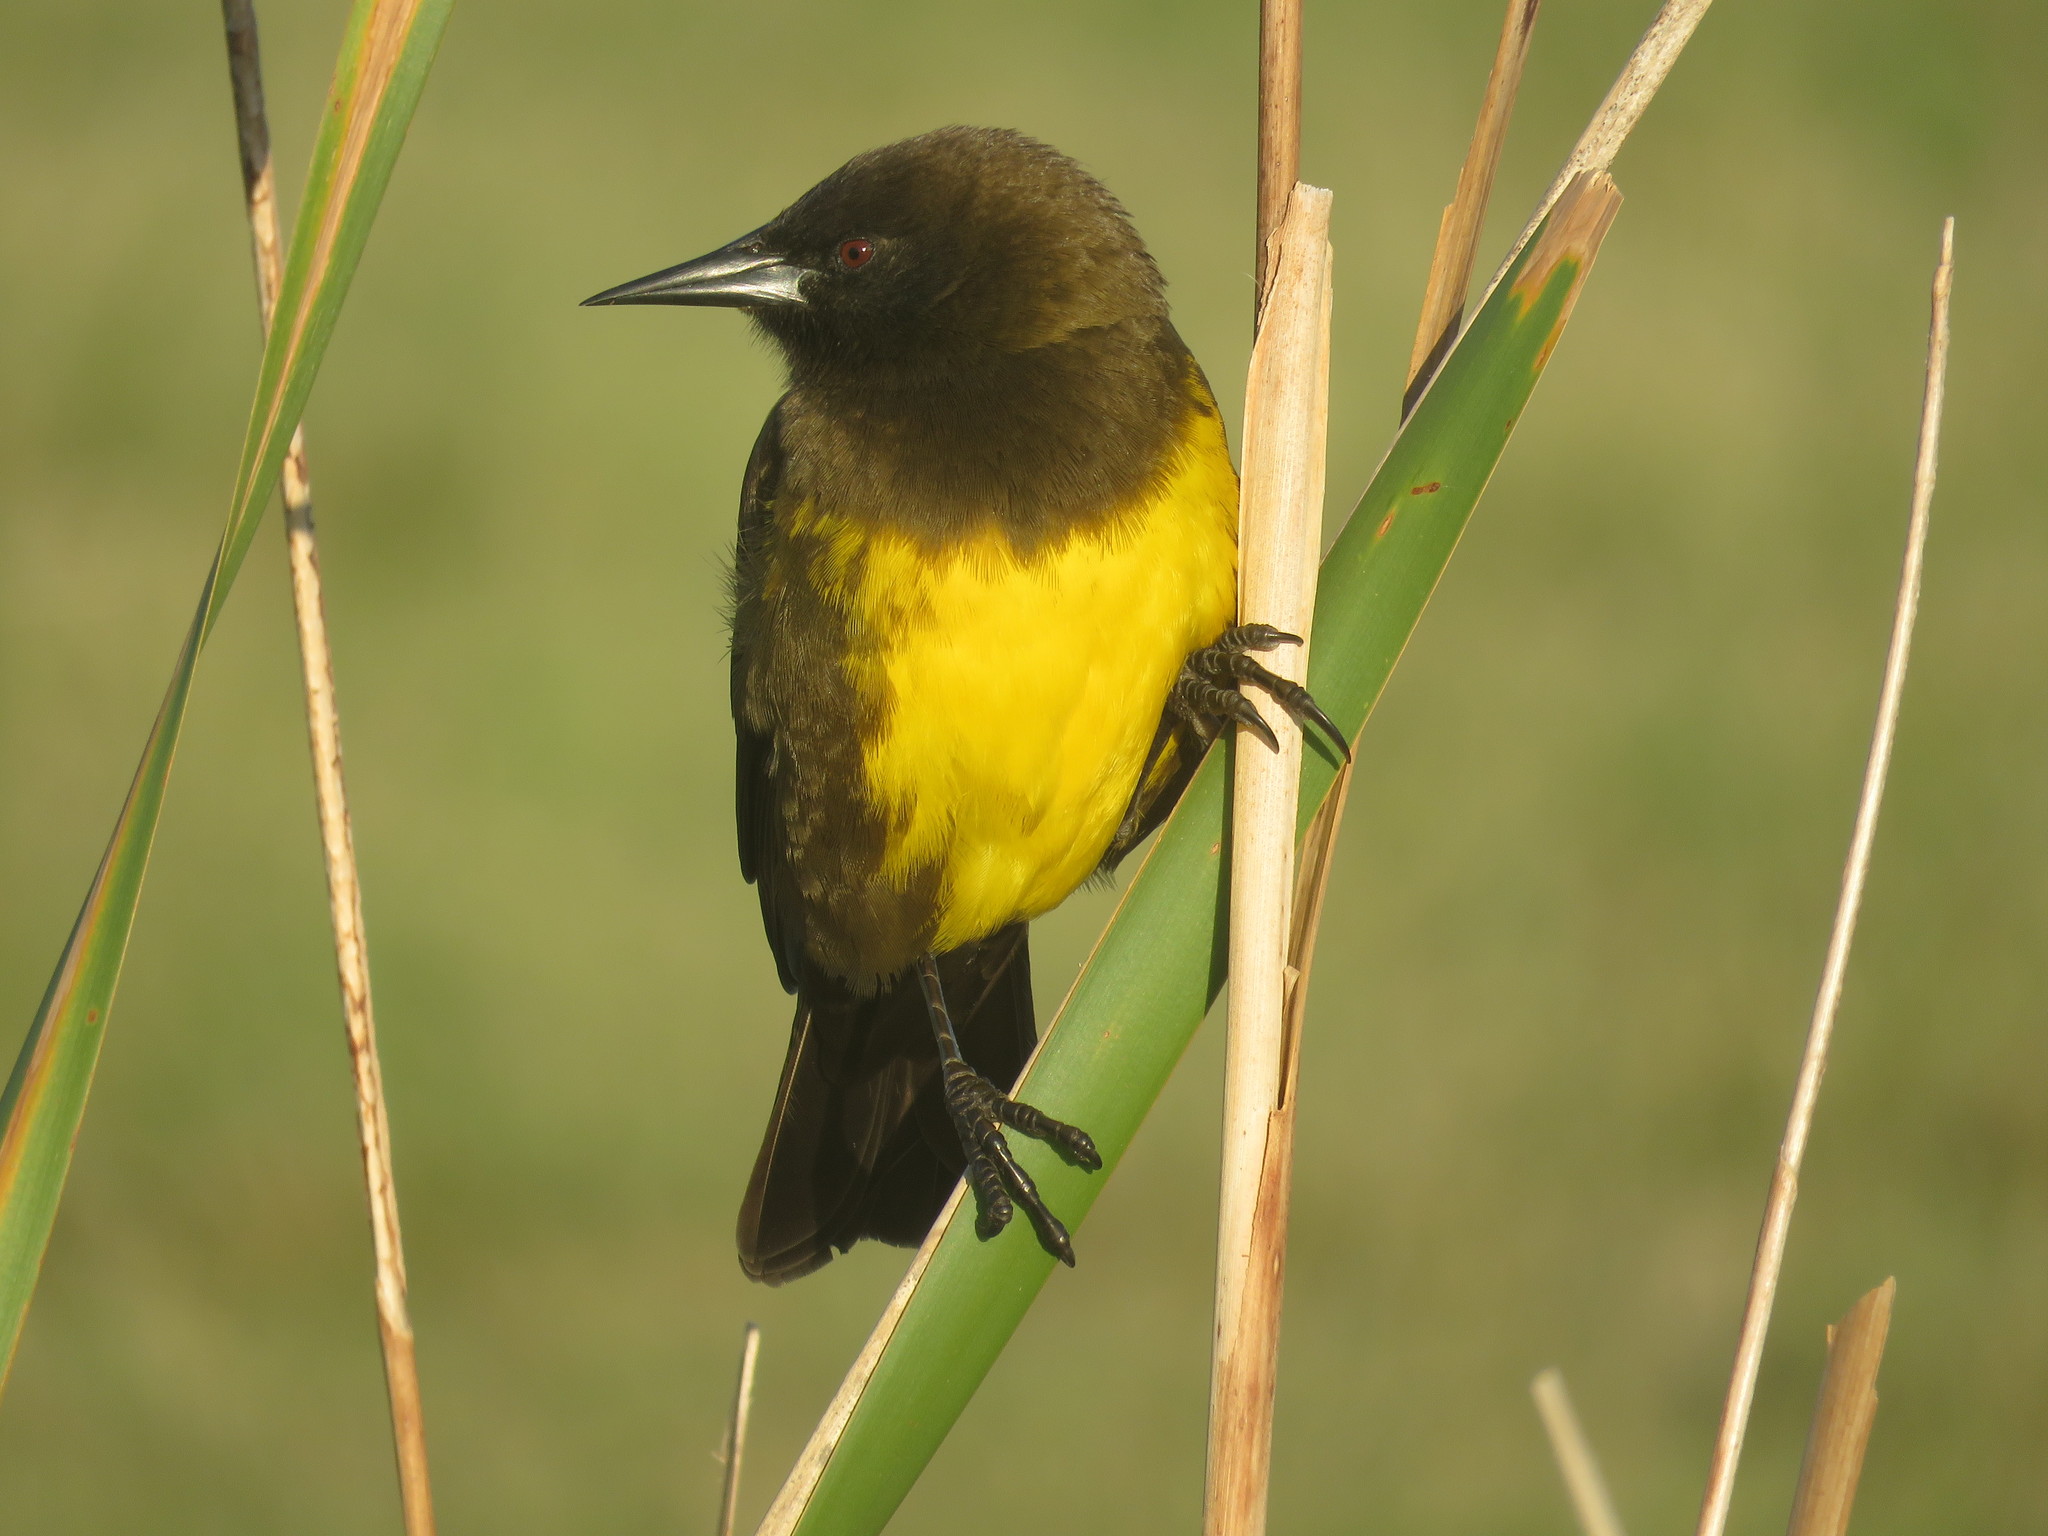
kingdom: Animalia
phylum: Chordata
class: Aves
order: Passeriformes
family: Icteridae
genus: Pseudoleistes
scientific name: Pseudoleistes virescens
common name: Brown-and-yellow marshbird
